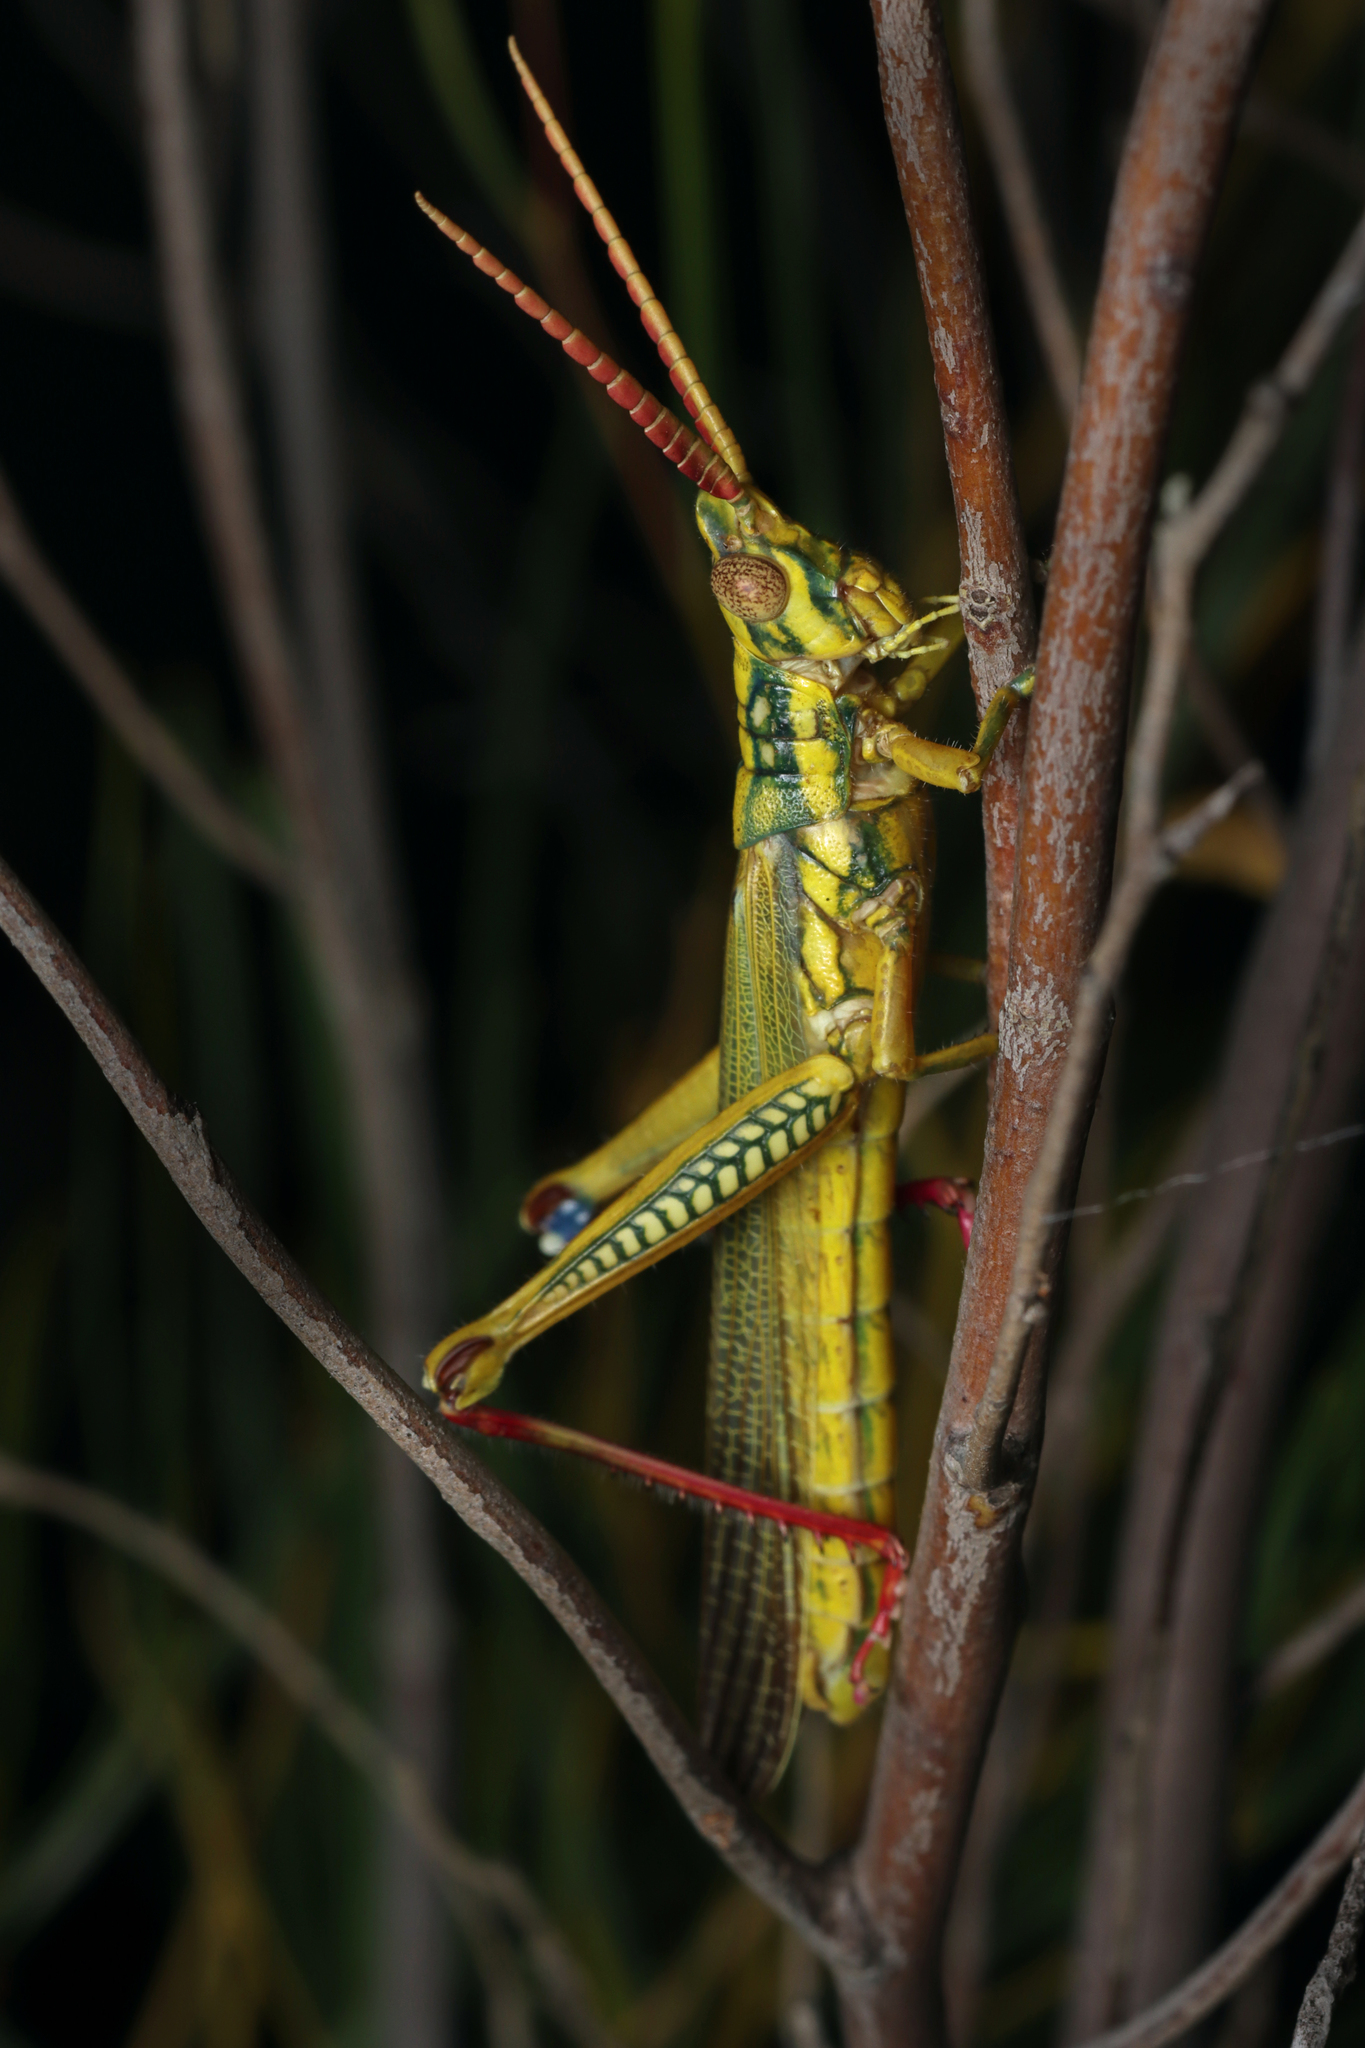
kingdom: Animalia
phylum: Arthropoda
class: Insecta
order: Orthoptera
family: Acrididae
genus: Macrolobalia
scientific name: Macrolobalia striata
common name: Striped acacia grasshopper
